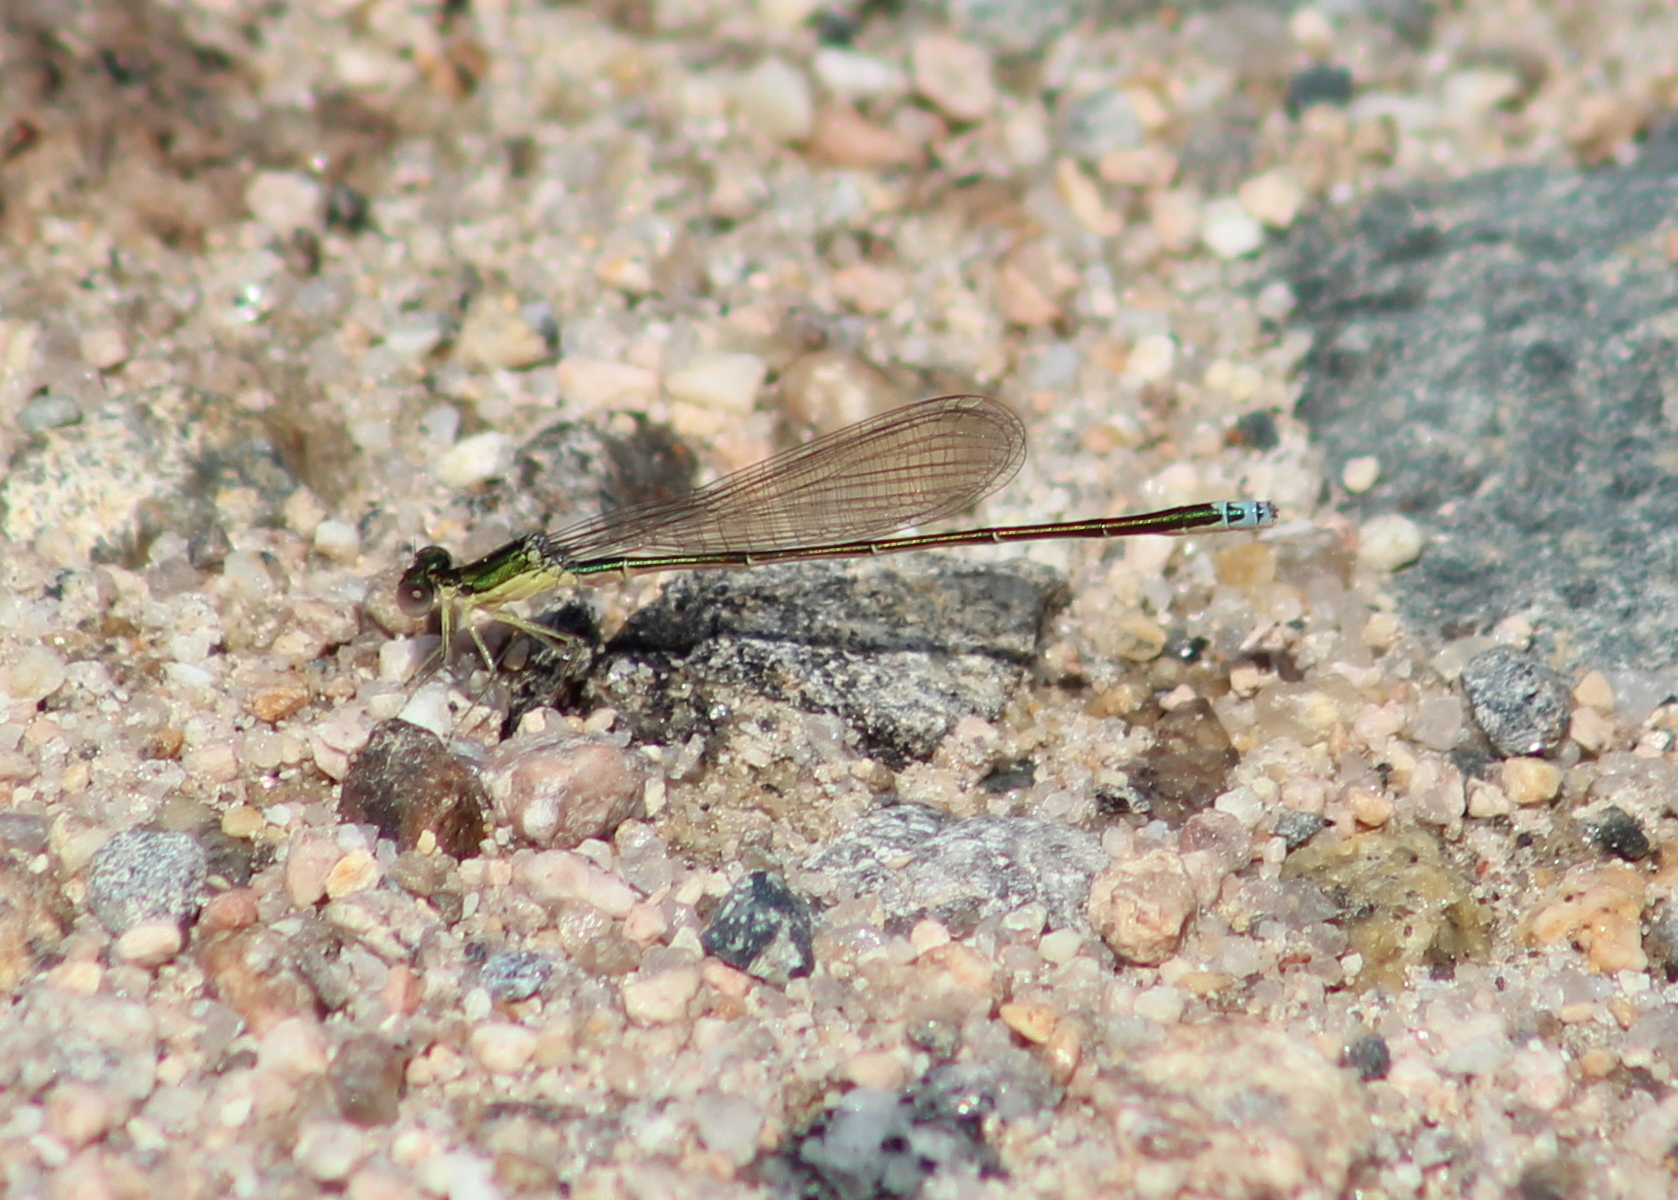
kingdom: Animalia
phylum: Arthropoda
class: Insecta
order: Odonata
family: Coenagrionidae
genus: Nehalennia
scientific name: Nehalennia irene
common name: Sedge sprite
